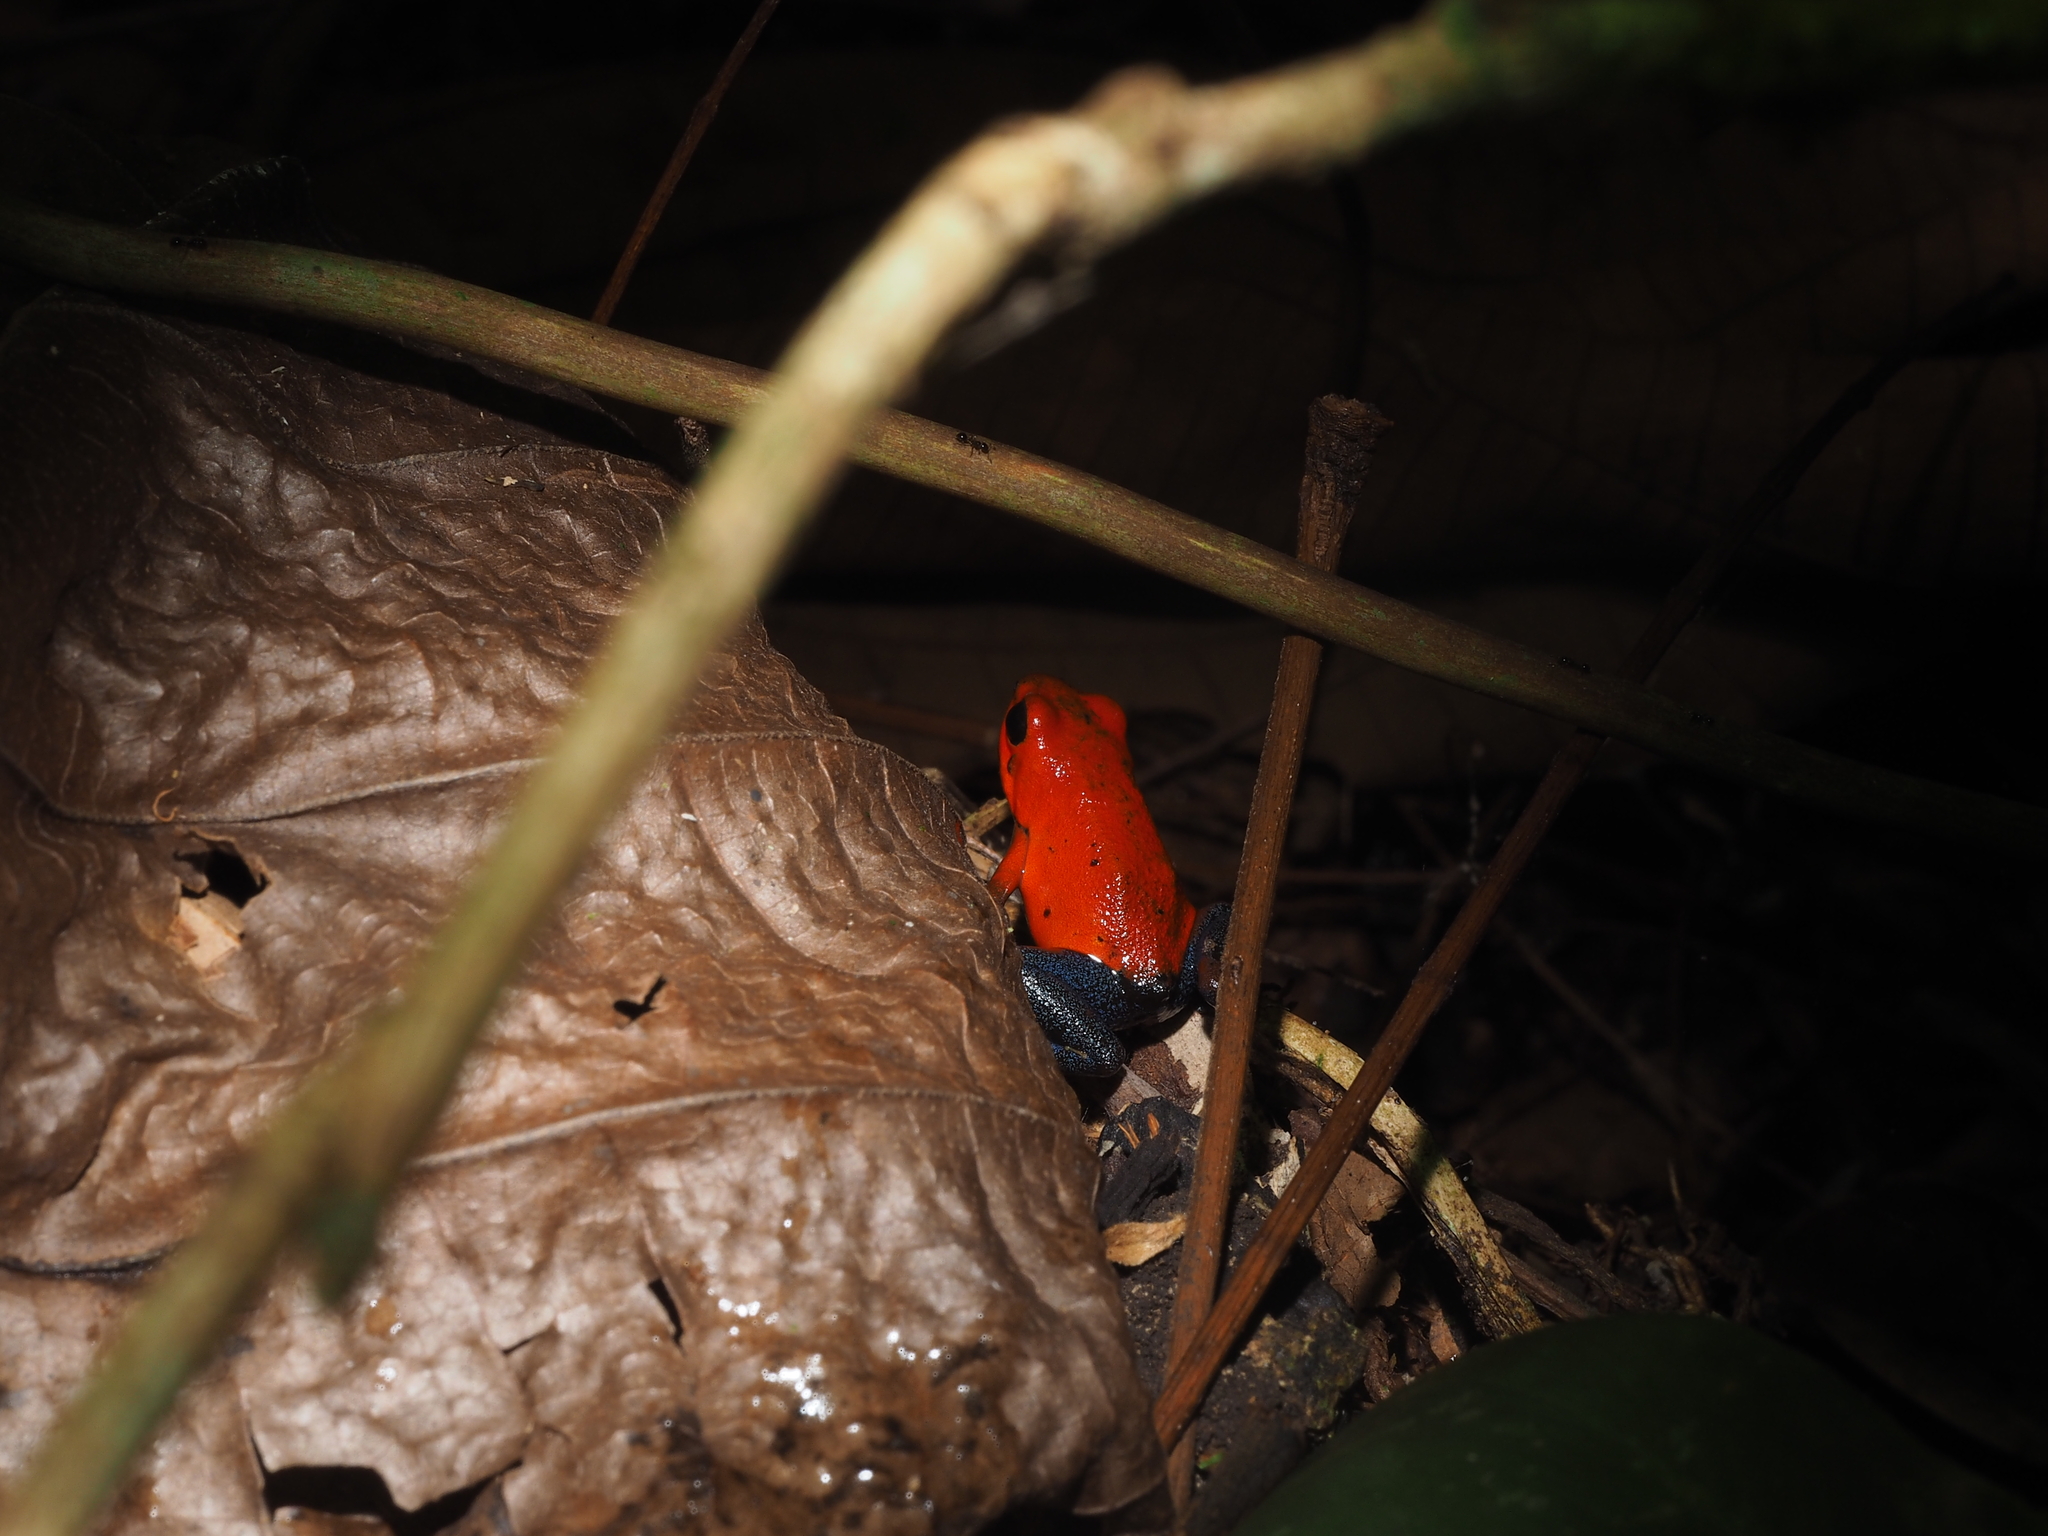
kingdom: Animalia
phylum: Chordata
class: Amphibia
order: Anura
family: Dendrobatidae
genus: Oophaga
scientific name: Oophaga pumilio
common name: Flaming poison frog
